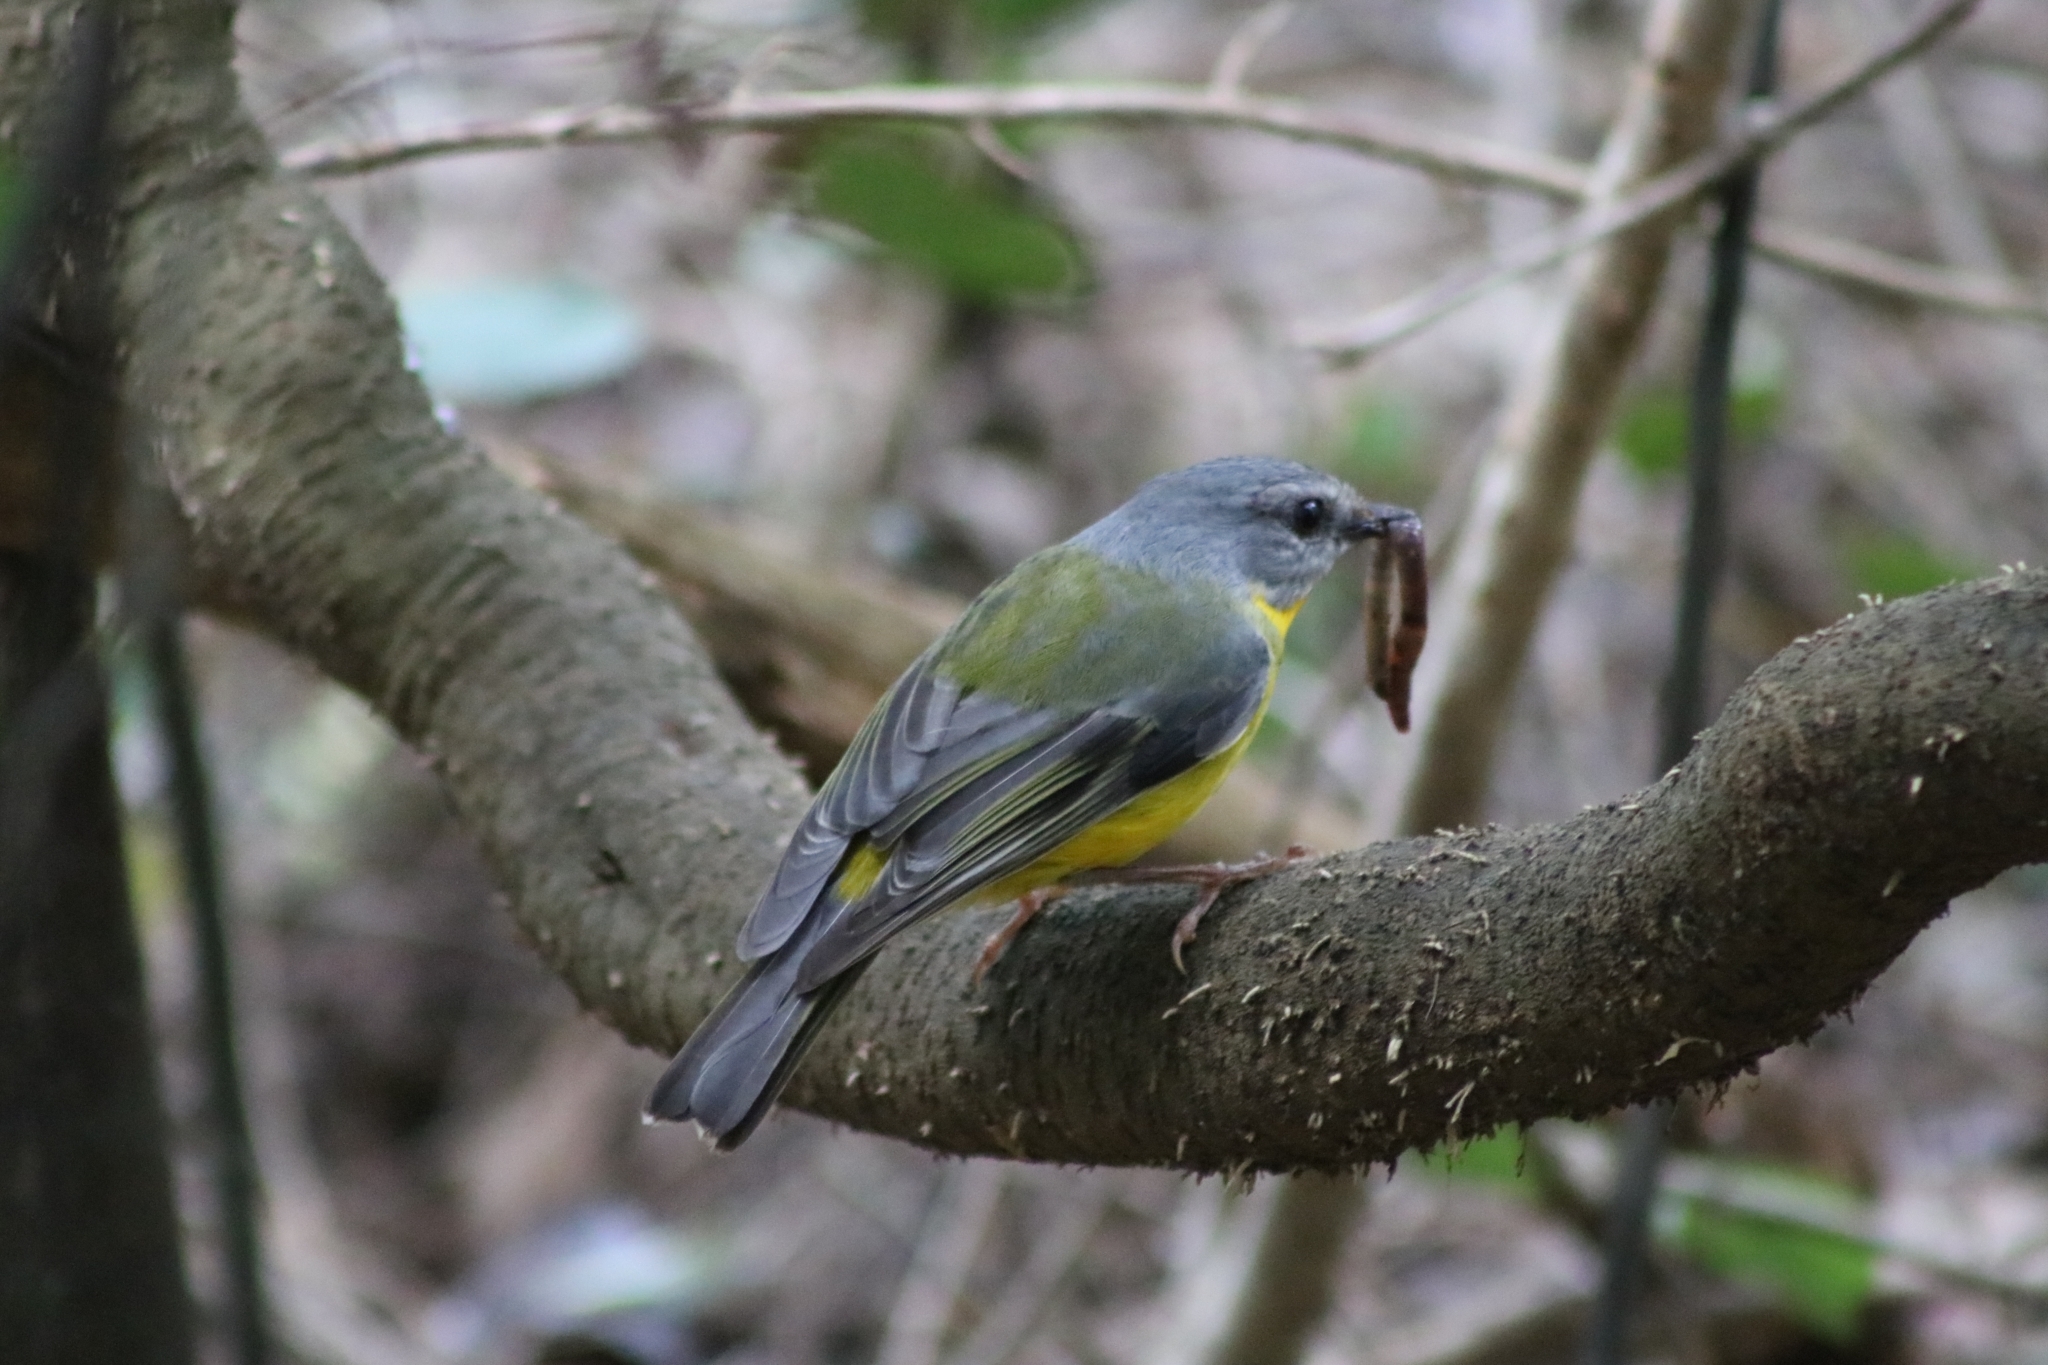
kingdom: Animalia
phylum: Chordata
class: Aves
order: Passeriformes
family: Petroicidae
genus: Eopsaltria
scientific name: Eopsaltria australis
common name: Eastern yellow robin
